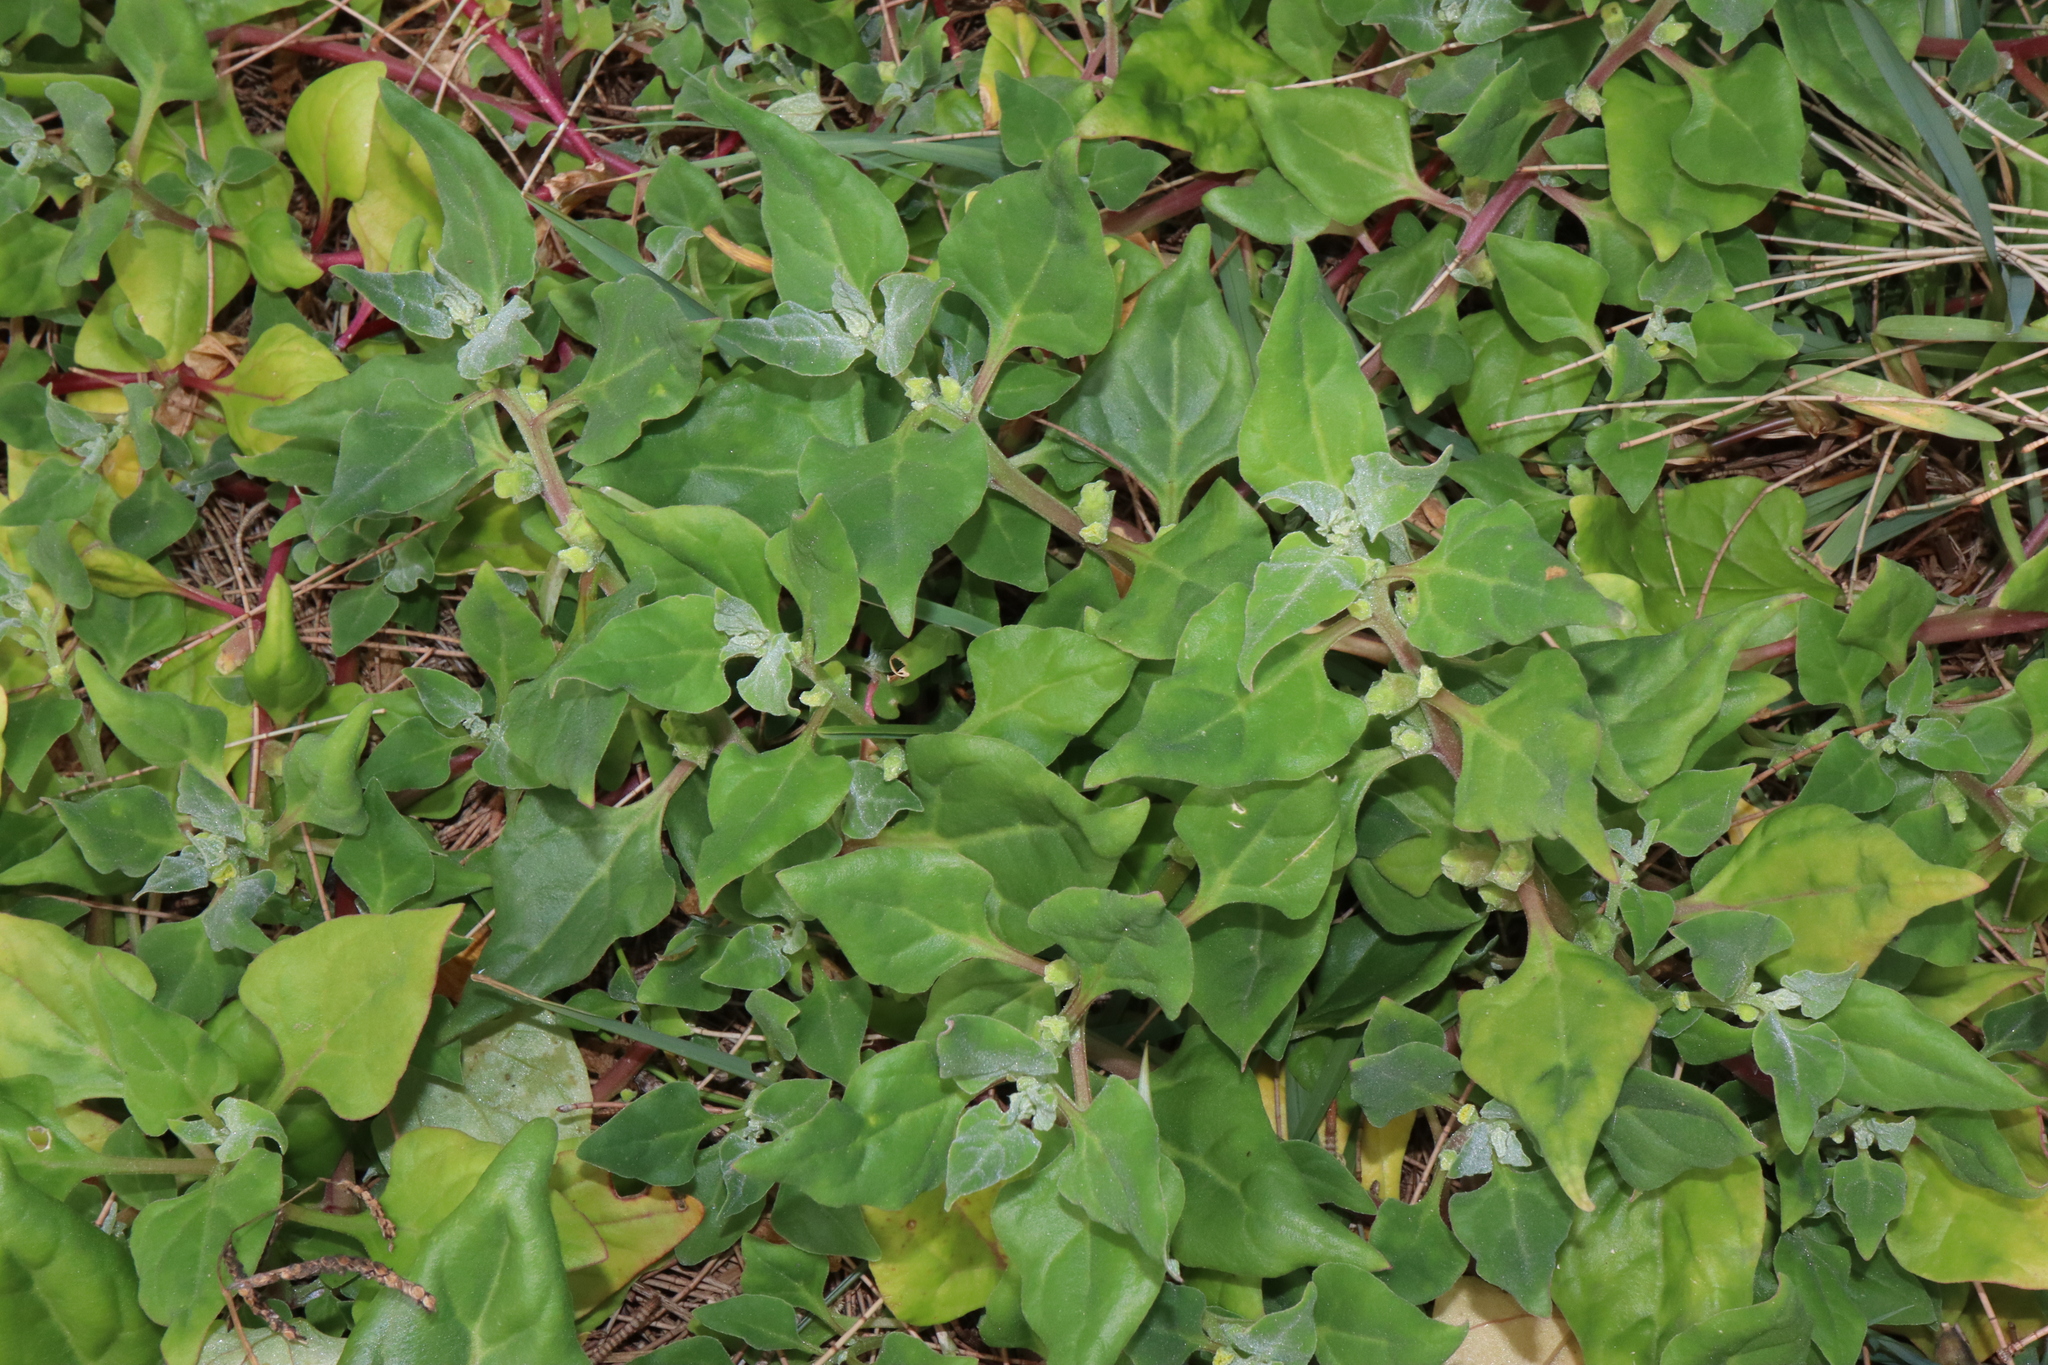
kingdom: Plantae
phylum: Tracheophyta
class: Magnoliopsida
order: Caryophyllales
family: Aizoaceae
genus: Tetragonia
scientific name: Tetragonia tetragonoides
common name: New zealand-spinach
